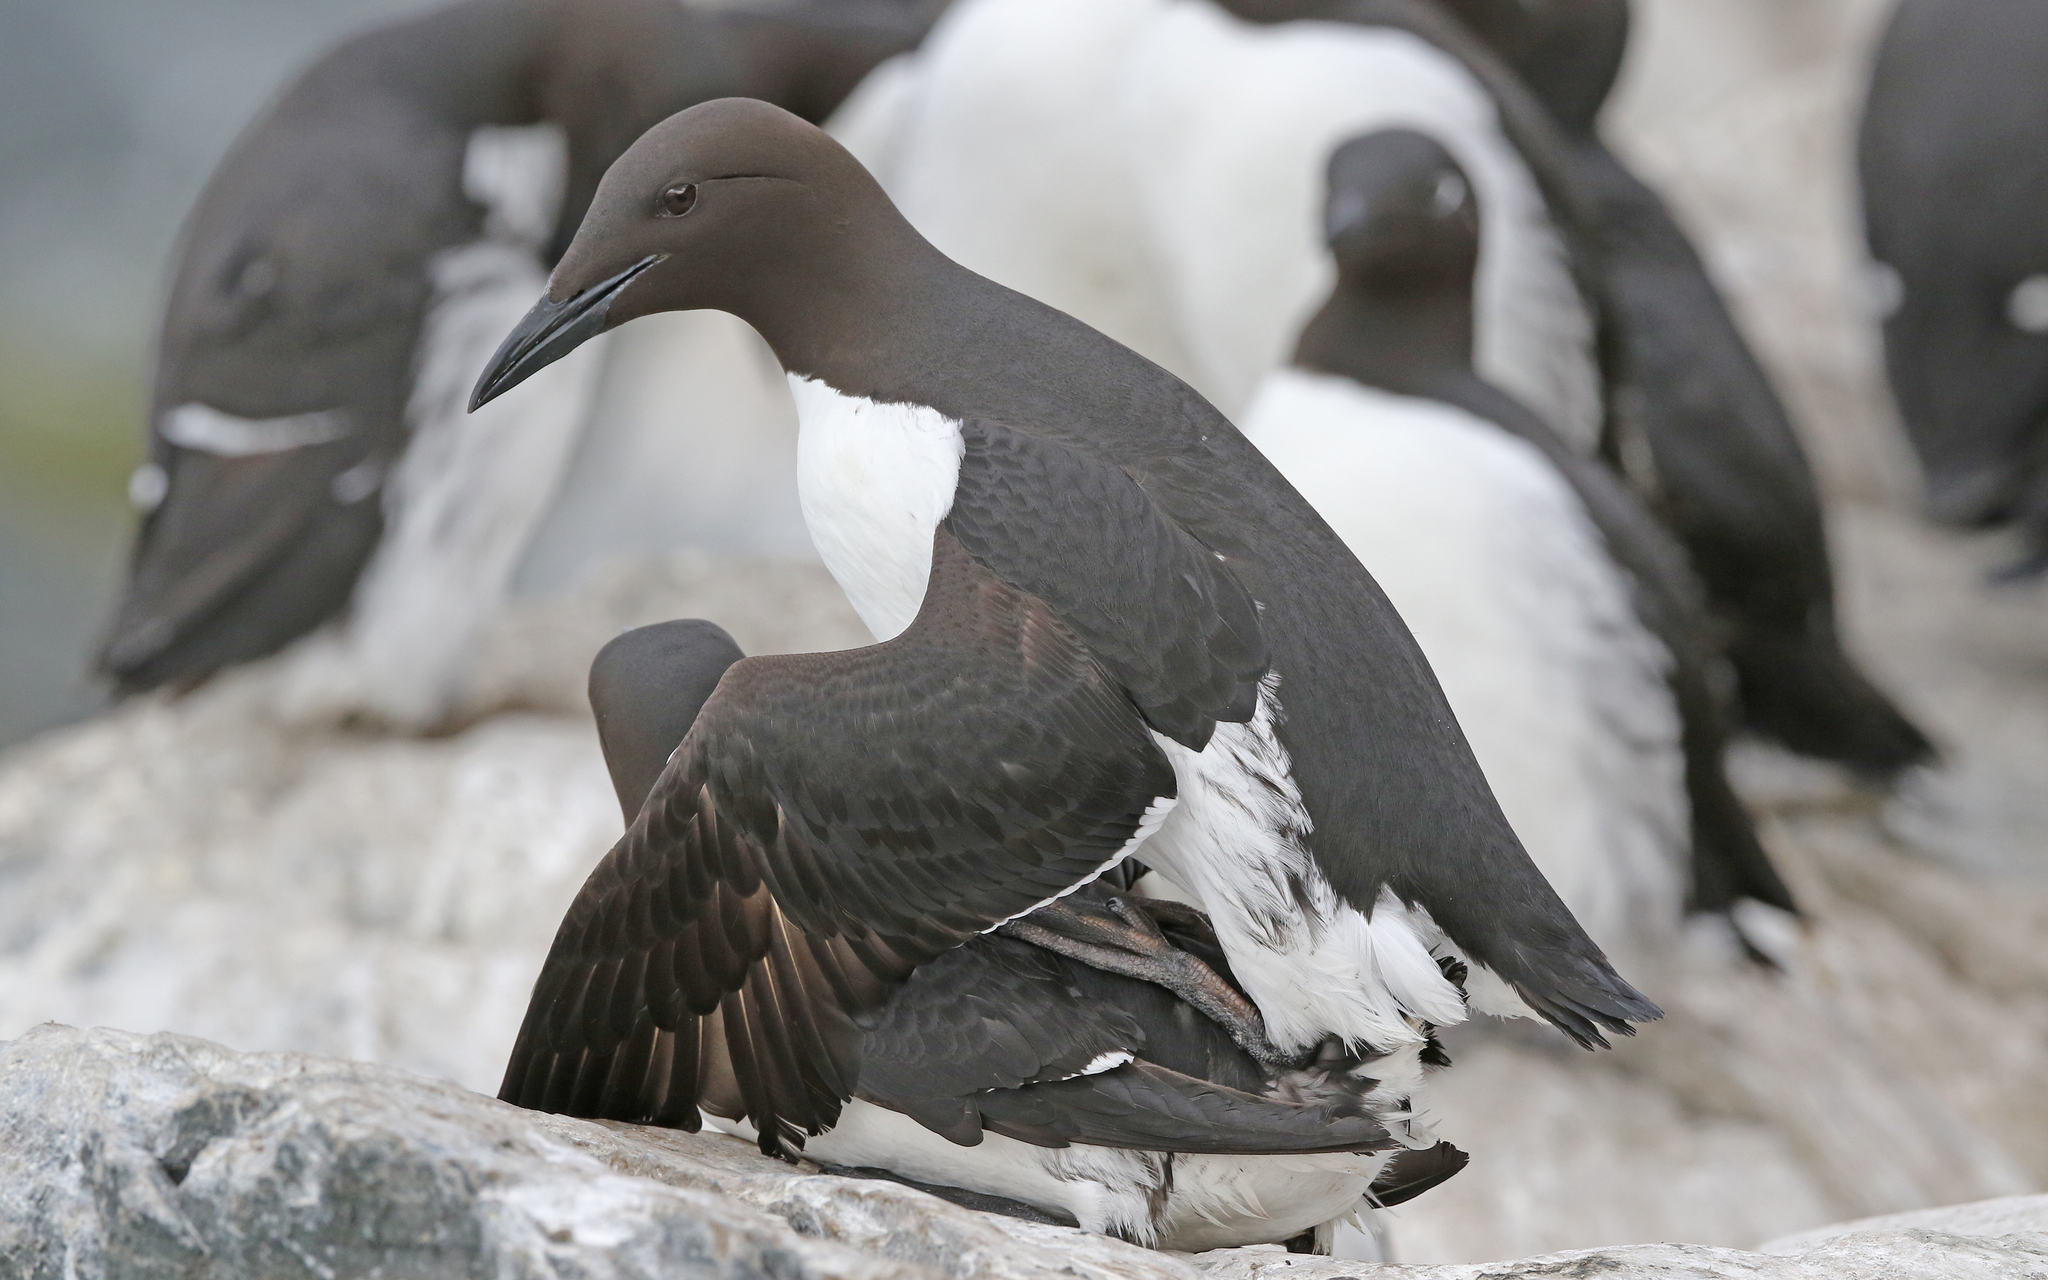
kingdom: Animalia
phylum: Chordata
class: Aves
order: Charadriiformes
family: Alcidae
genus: Uria
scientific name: Uria aalge
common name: Common murre
